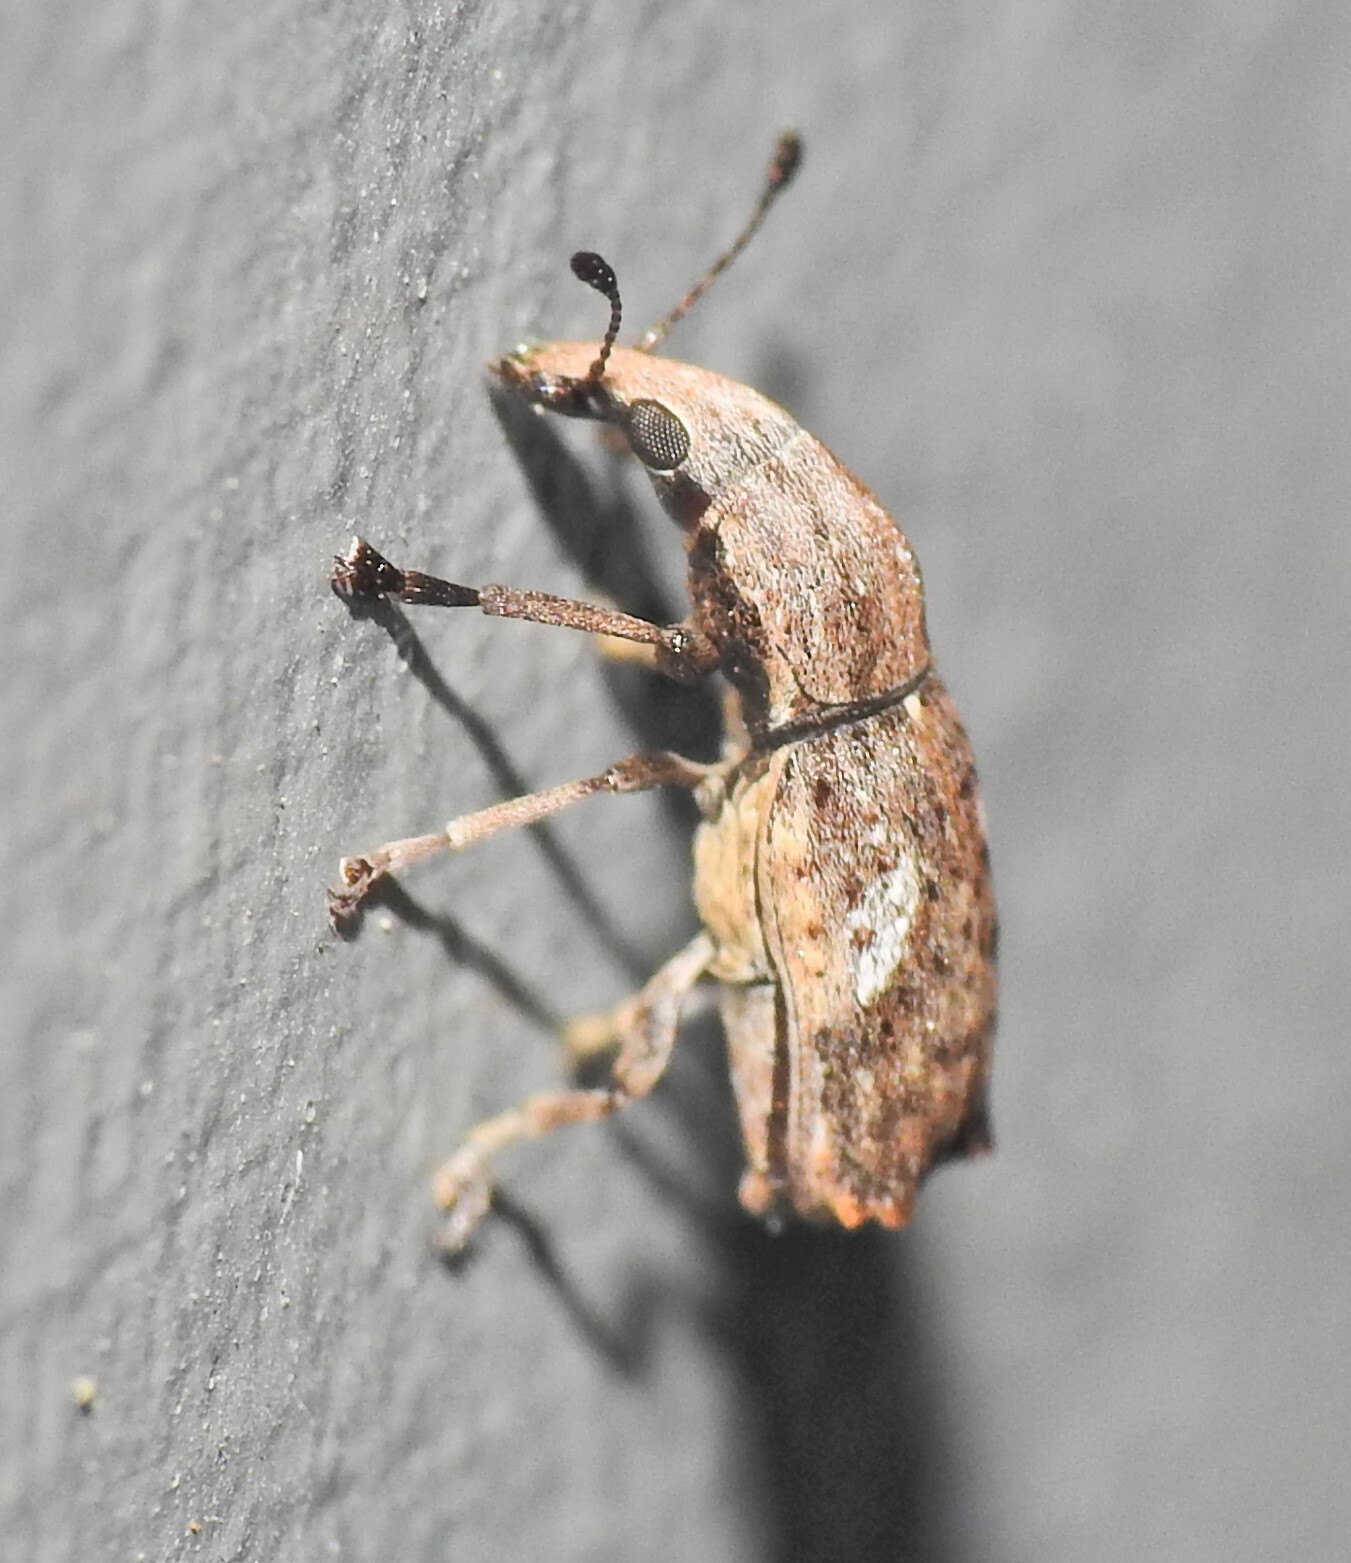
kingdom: Animalia
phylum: Arthropoda
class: Insecta
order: Coleoptera
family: Anthribidae
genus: Genethila
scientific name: Genethila retusa
